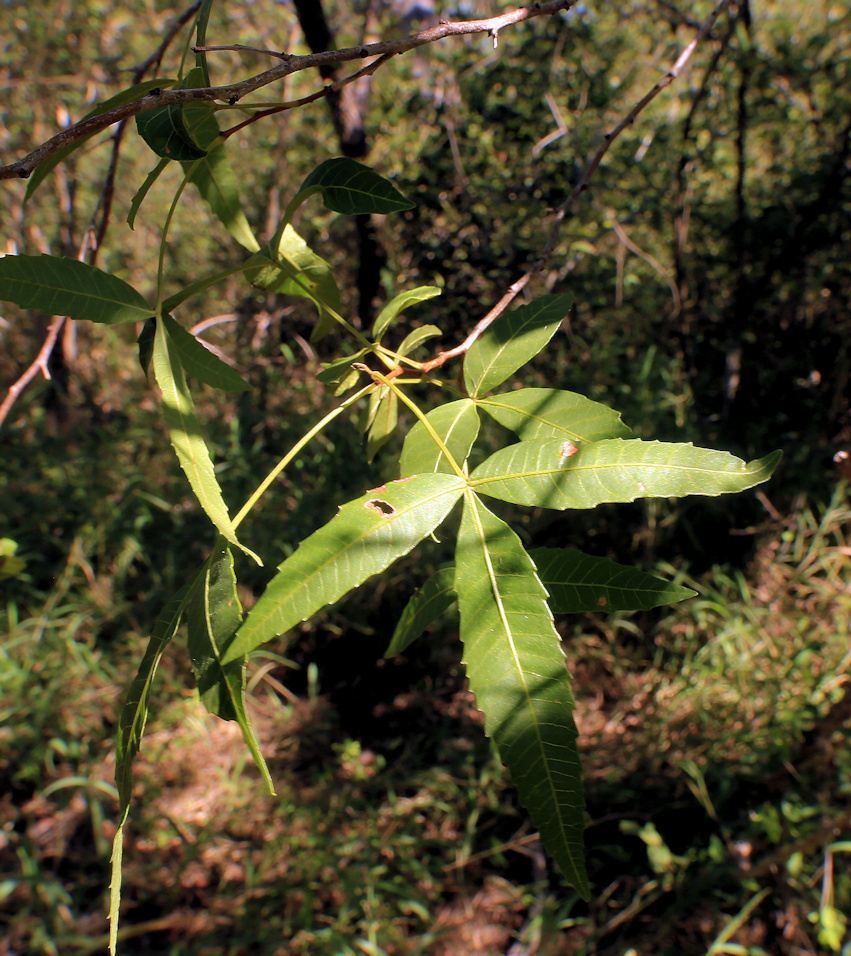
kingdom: Plantae
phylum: Tracheophyta
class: Magnoliopsida
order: Sapindales
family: Anacardiaceae
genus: Searsia
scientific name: Searsia leptodictya
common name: Mountain karee
